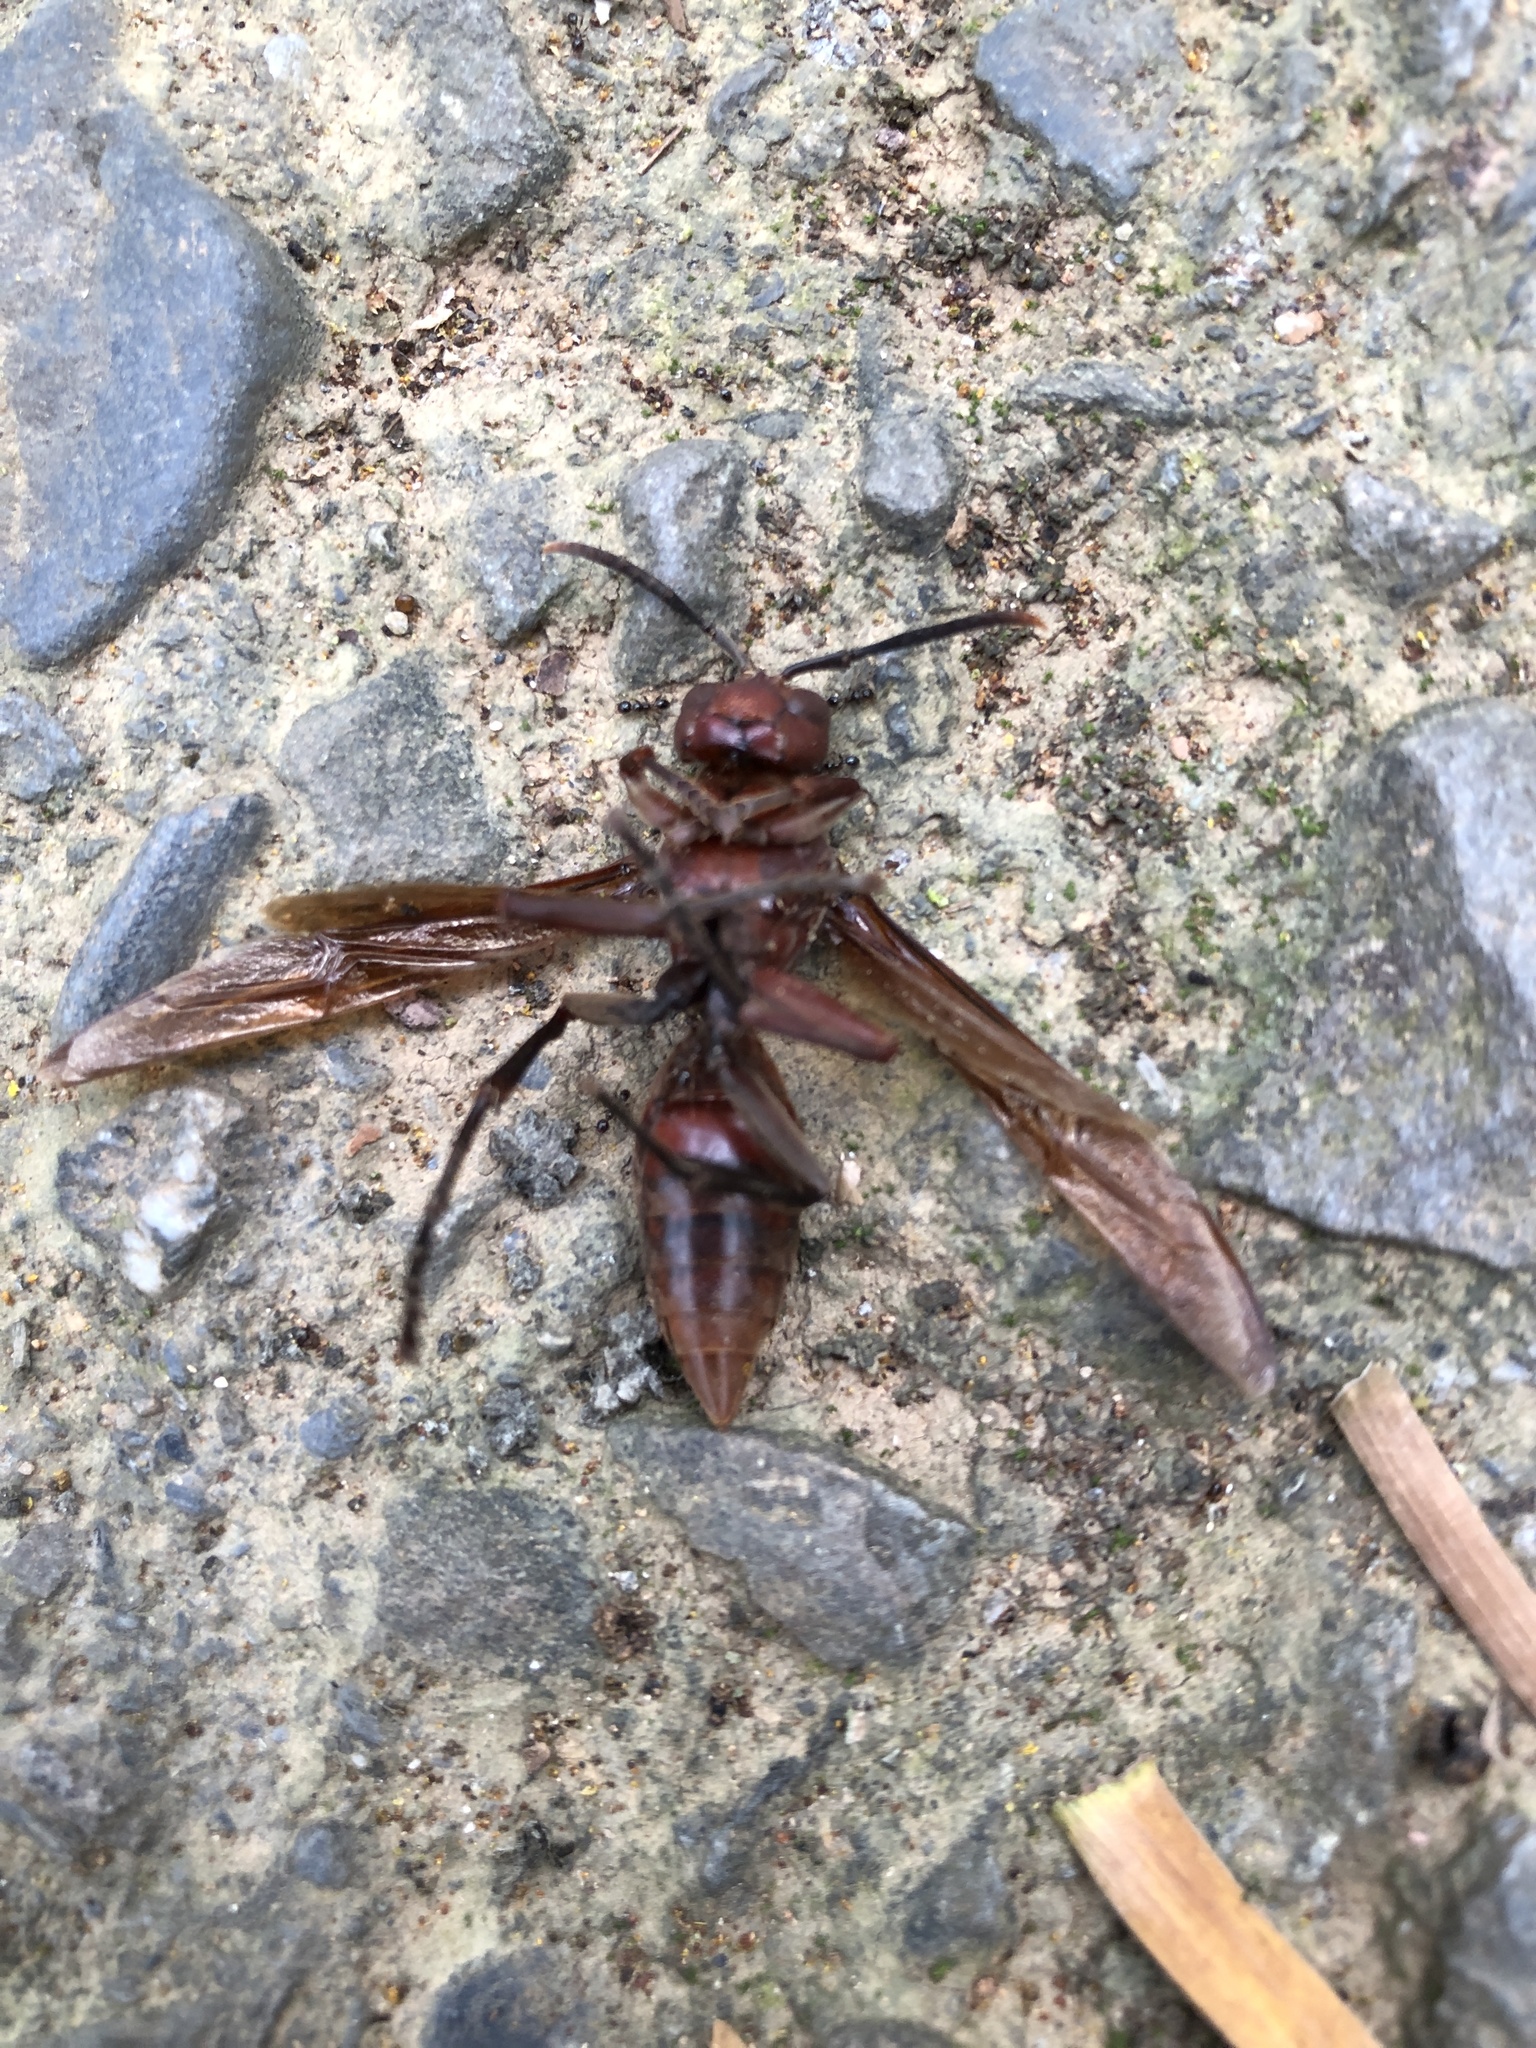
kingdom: Animalia
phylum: Arthropoda
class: Insecta
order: Hymenoptera
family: Eumenidae
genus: Polistes
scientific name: Polistes gigas
